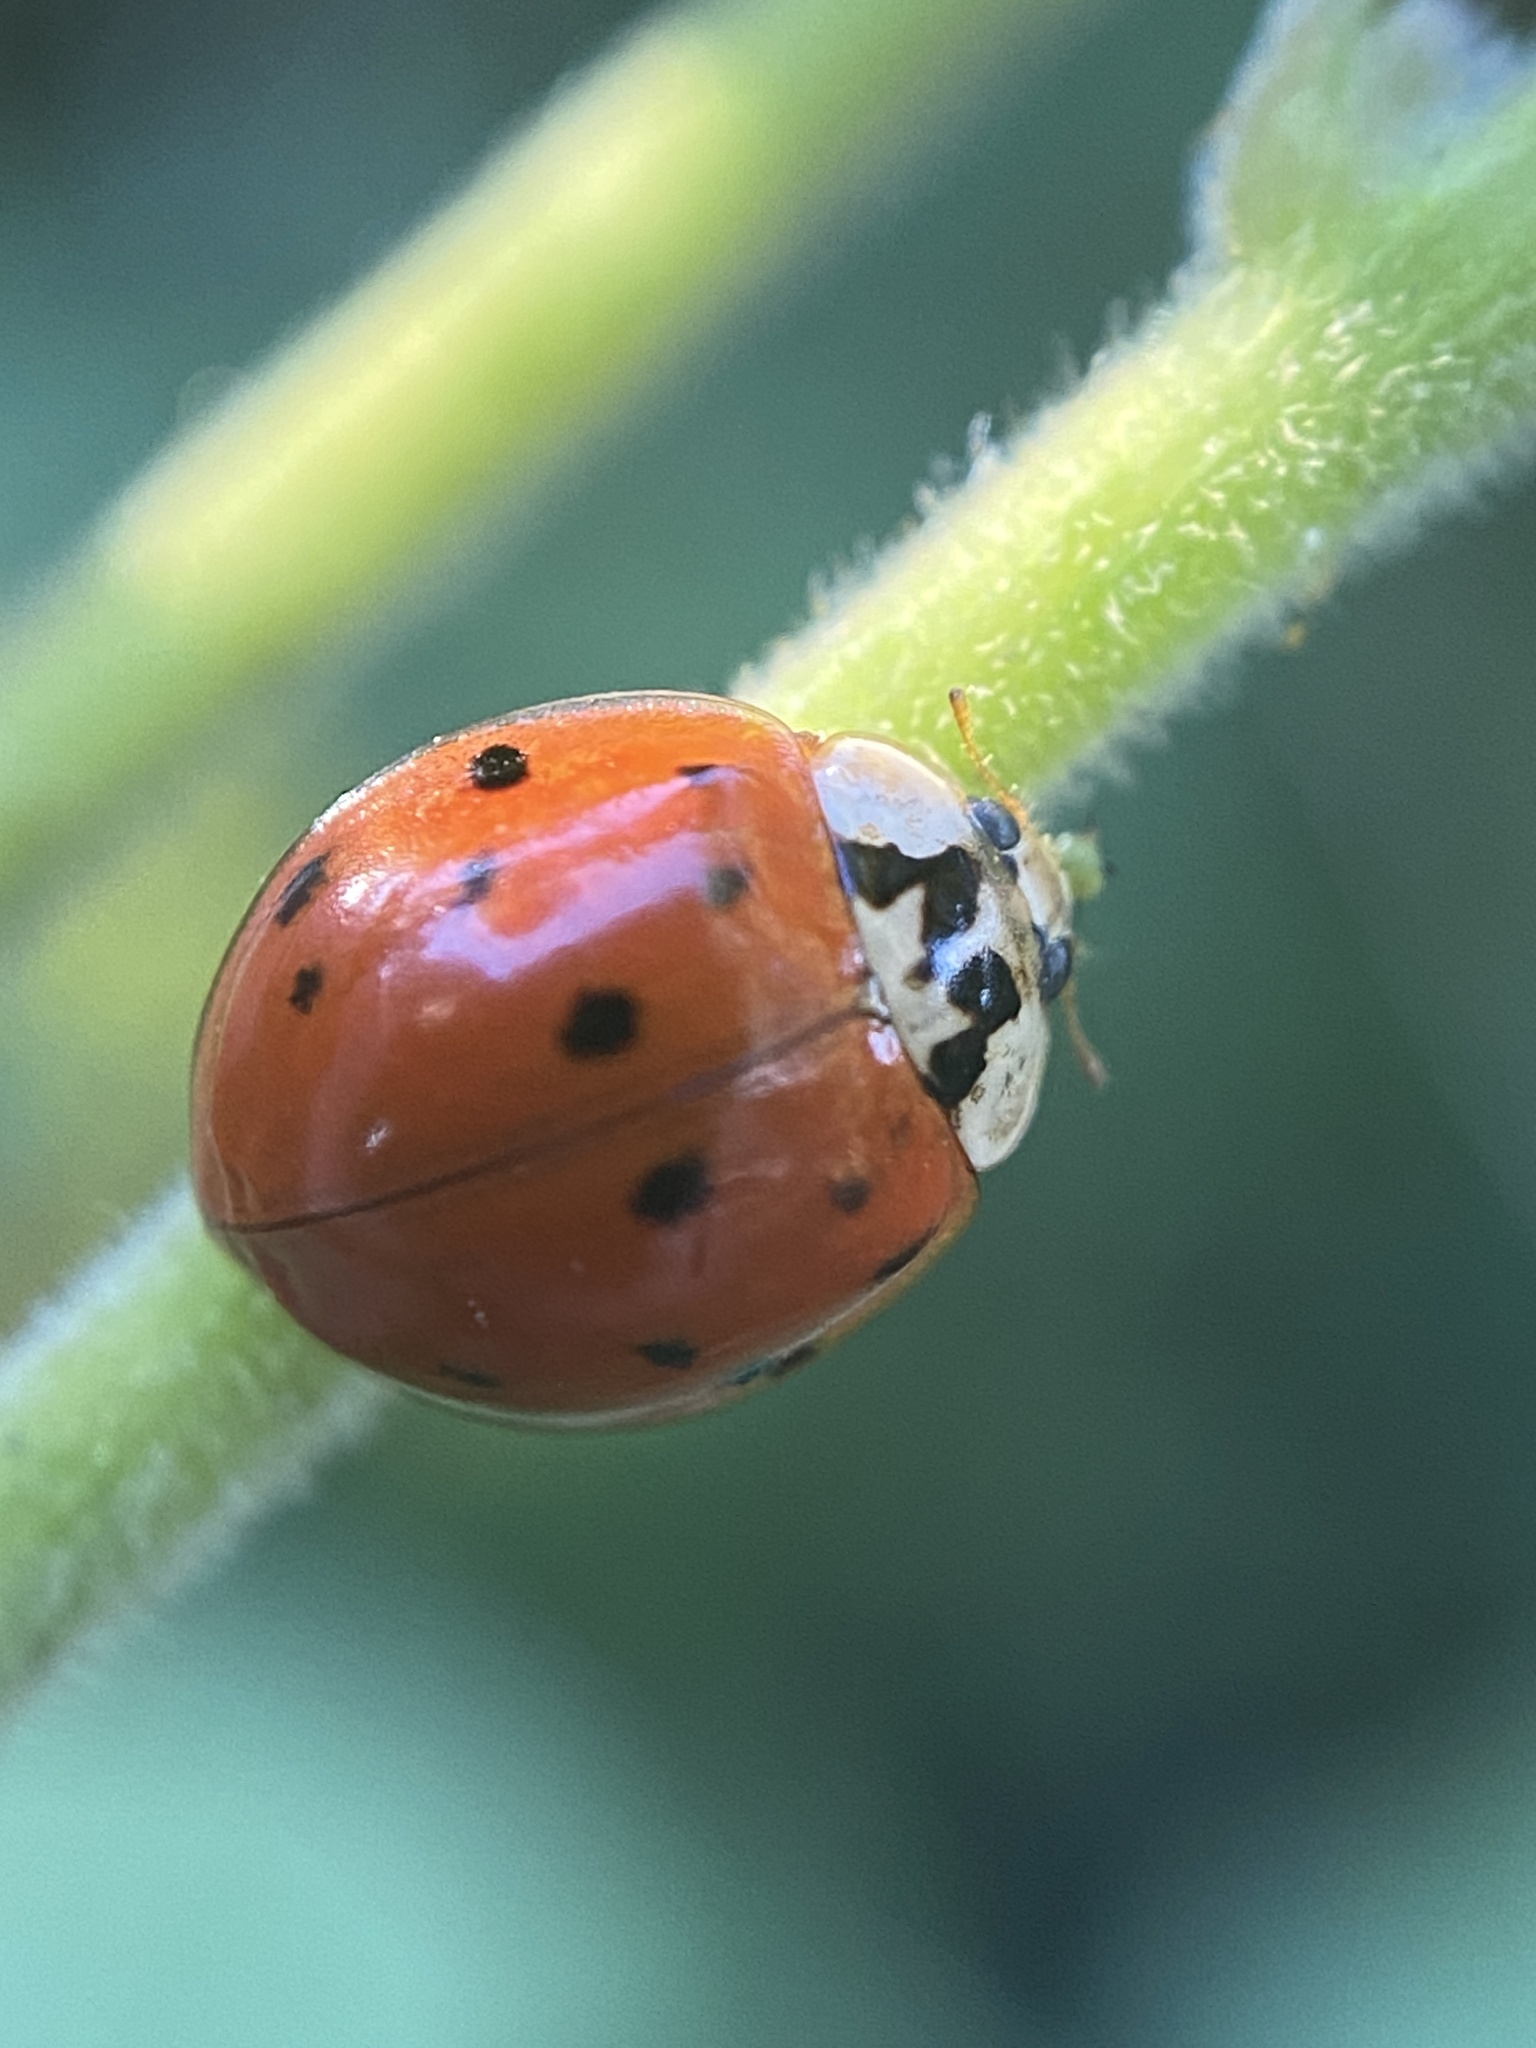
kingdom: Animalia
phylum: Arthropoda
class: Insecta
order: Coleoptera
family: Coccinellidae
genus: Harmonia
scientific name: Harmonia axyridis
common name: Harlequin ladybird
